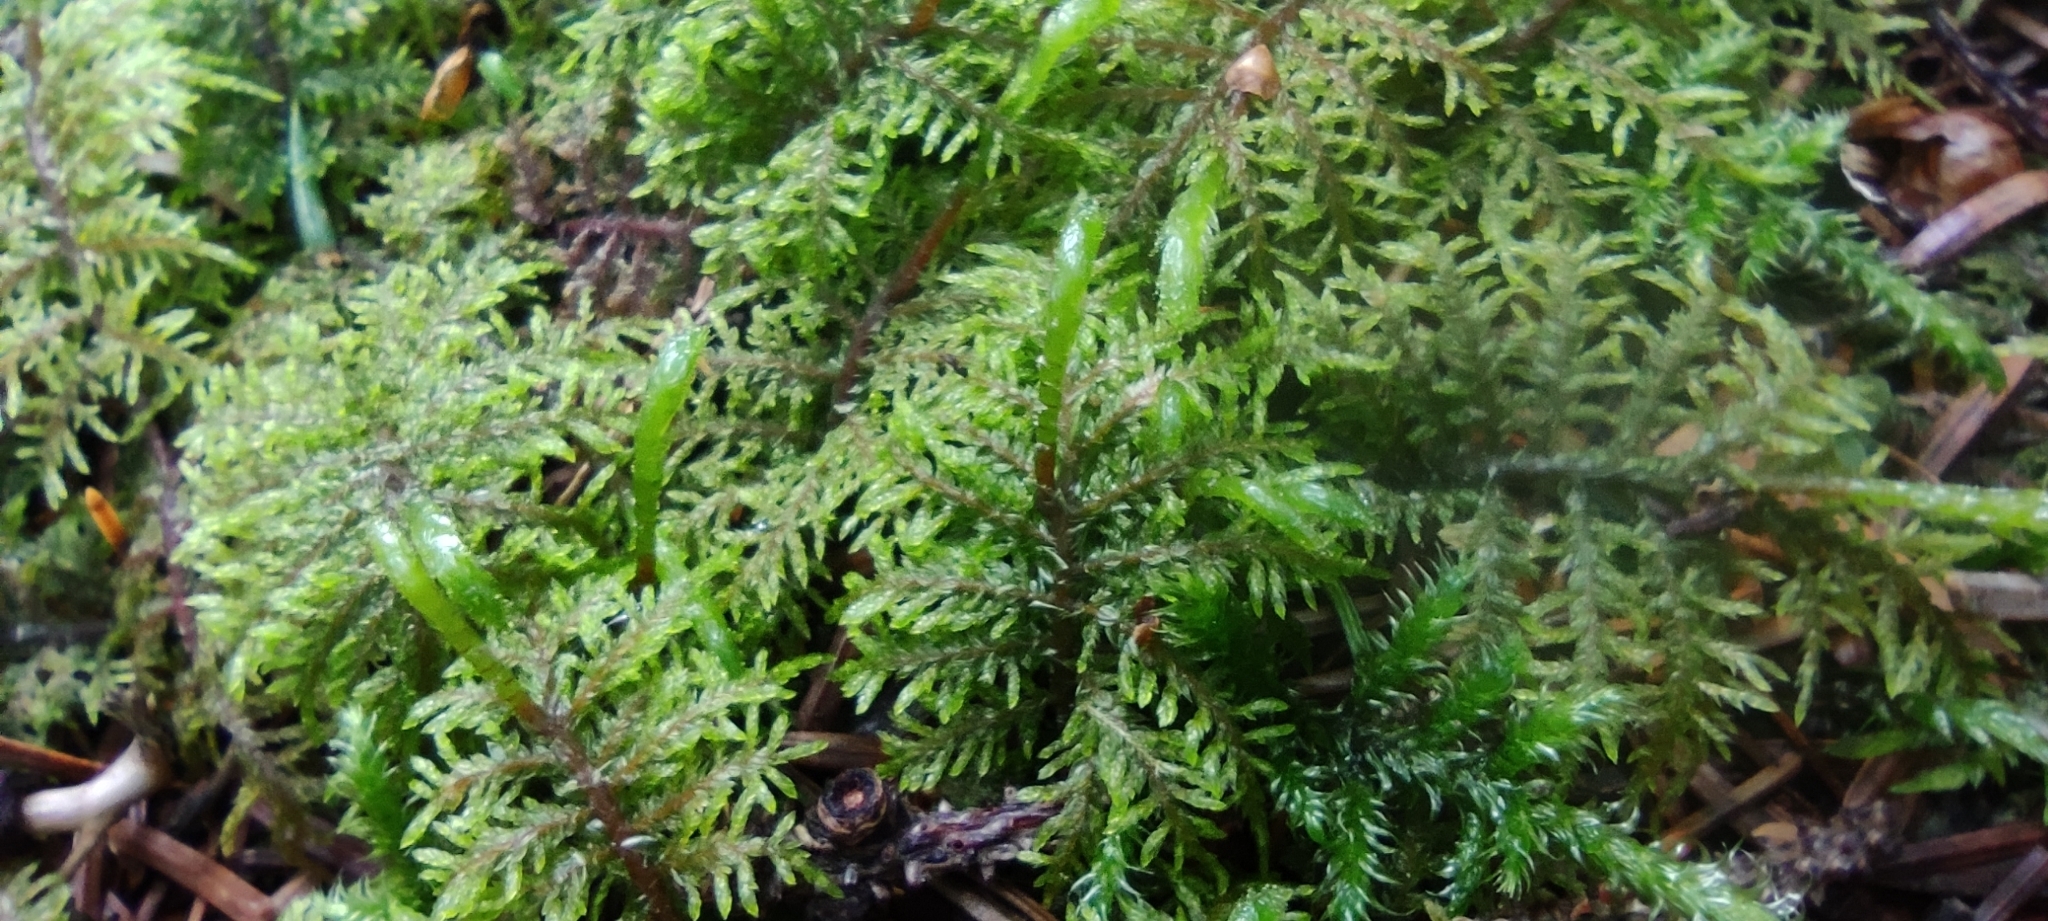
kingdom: Plantae
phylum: Bryophyta
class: Bryopsida
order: Hypnales
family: Hylocomiaceae
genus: Hylocomium
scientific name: Hylocomium splendens
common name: Stairstep moss
